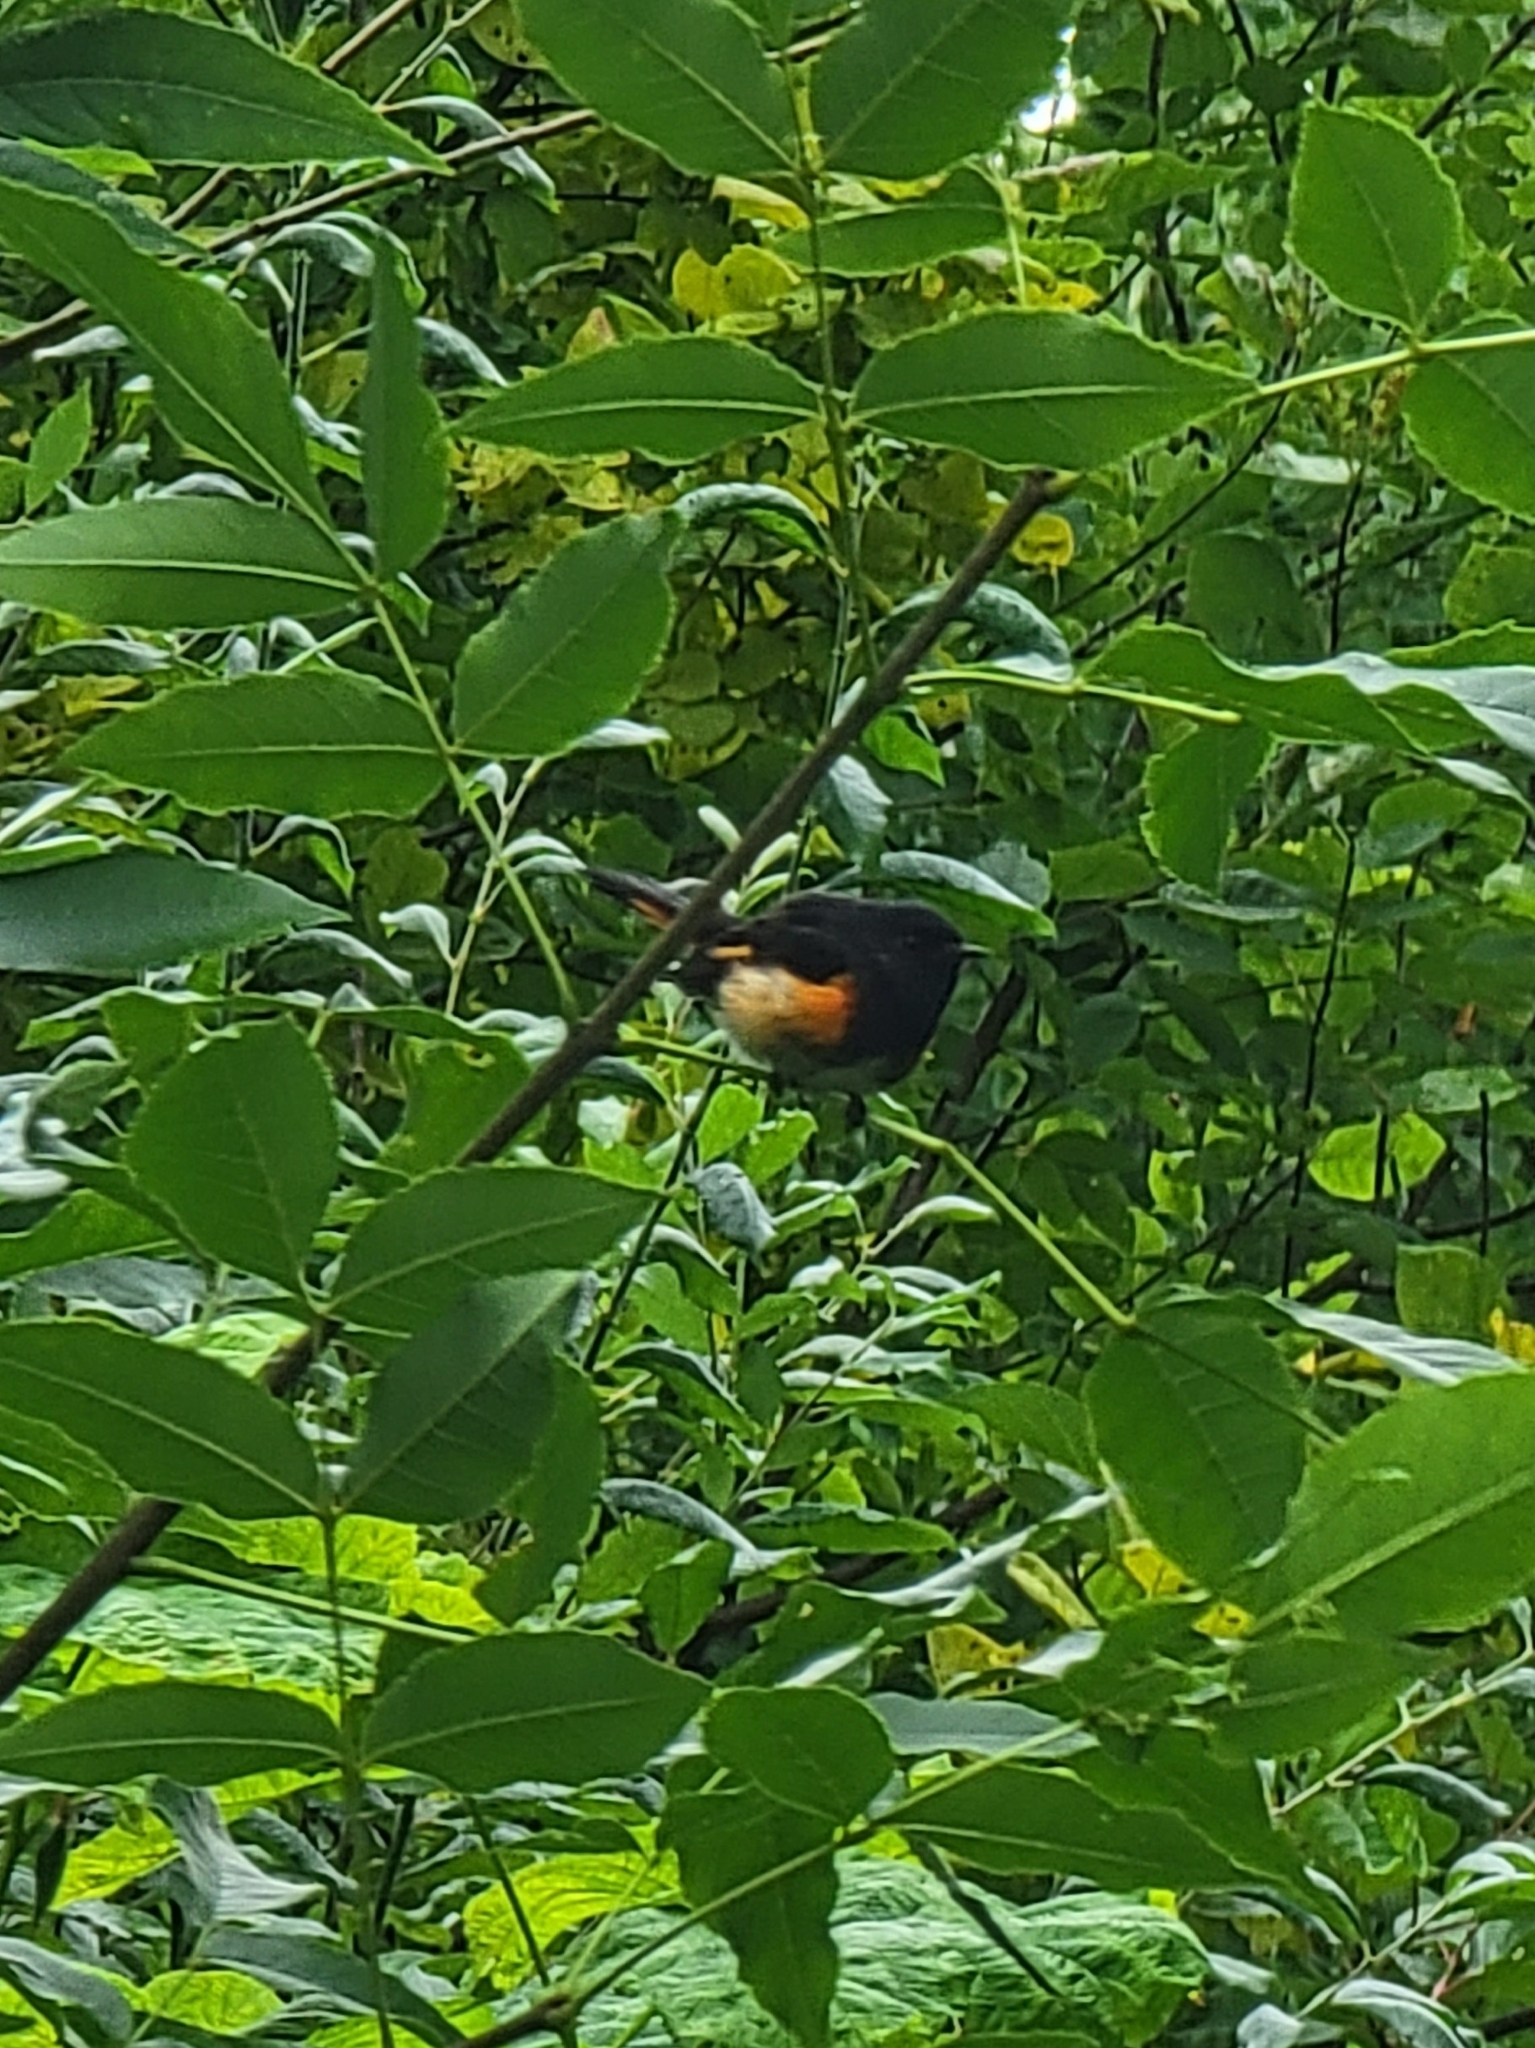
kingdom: Animalia
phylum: Chordata
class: Aves
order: Passeriformes
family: Parulidae
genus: Setophaga
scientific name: Setophaga ruticilla
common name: American redstart
